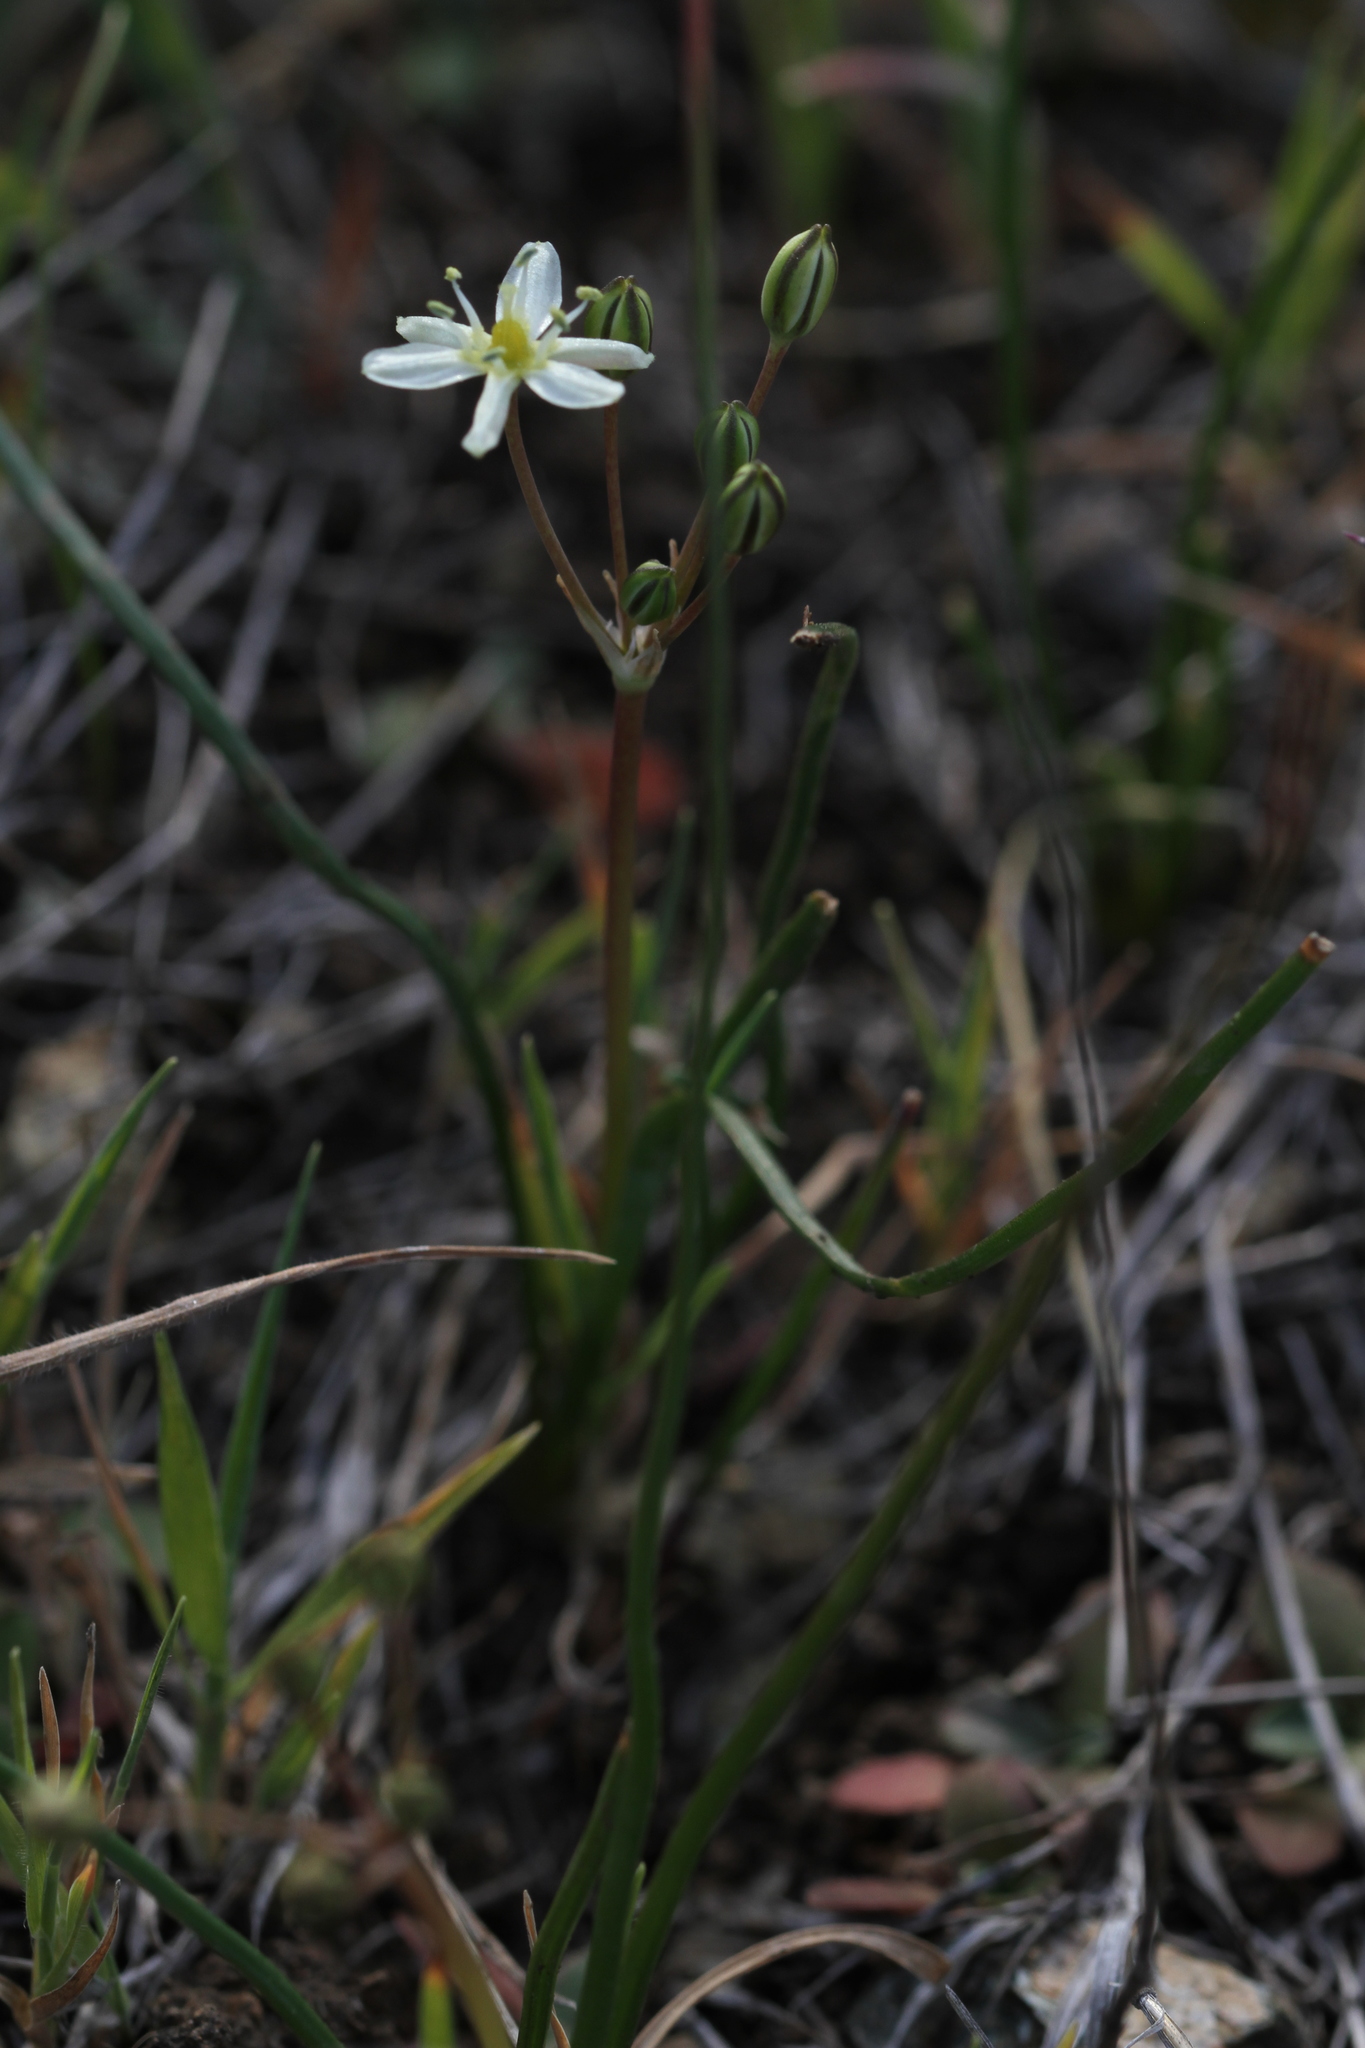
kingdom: Plantae
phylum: Tracheophyta
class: Liliopsida
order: Asparagales
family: Asparagaceae
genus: Muilla
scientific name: Muilla maritima
